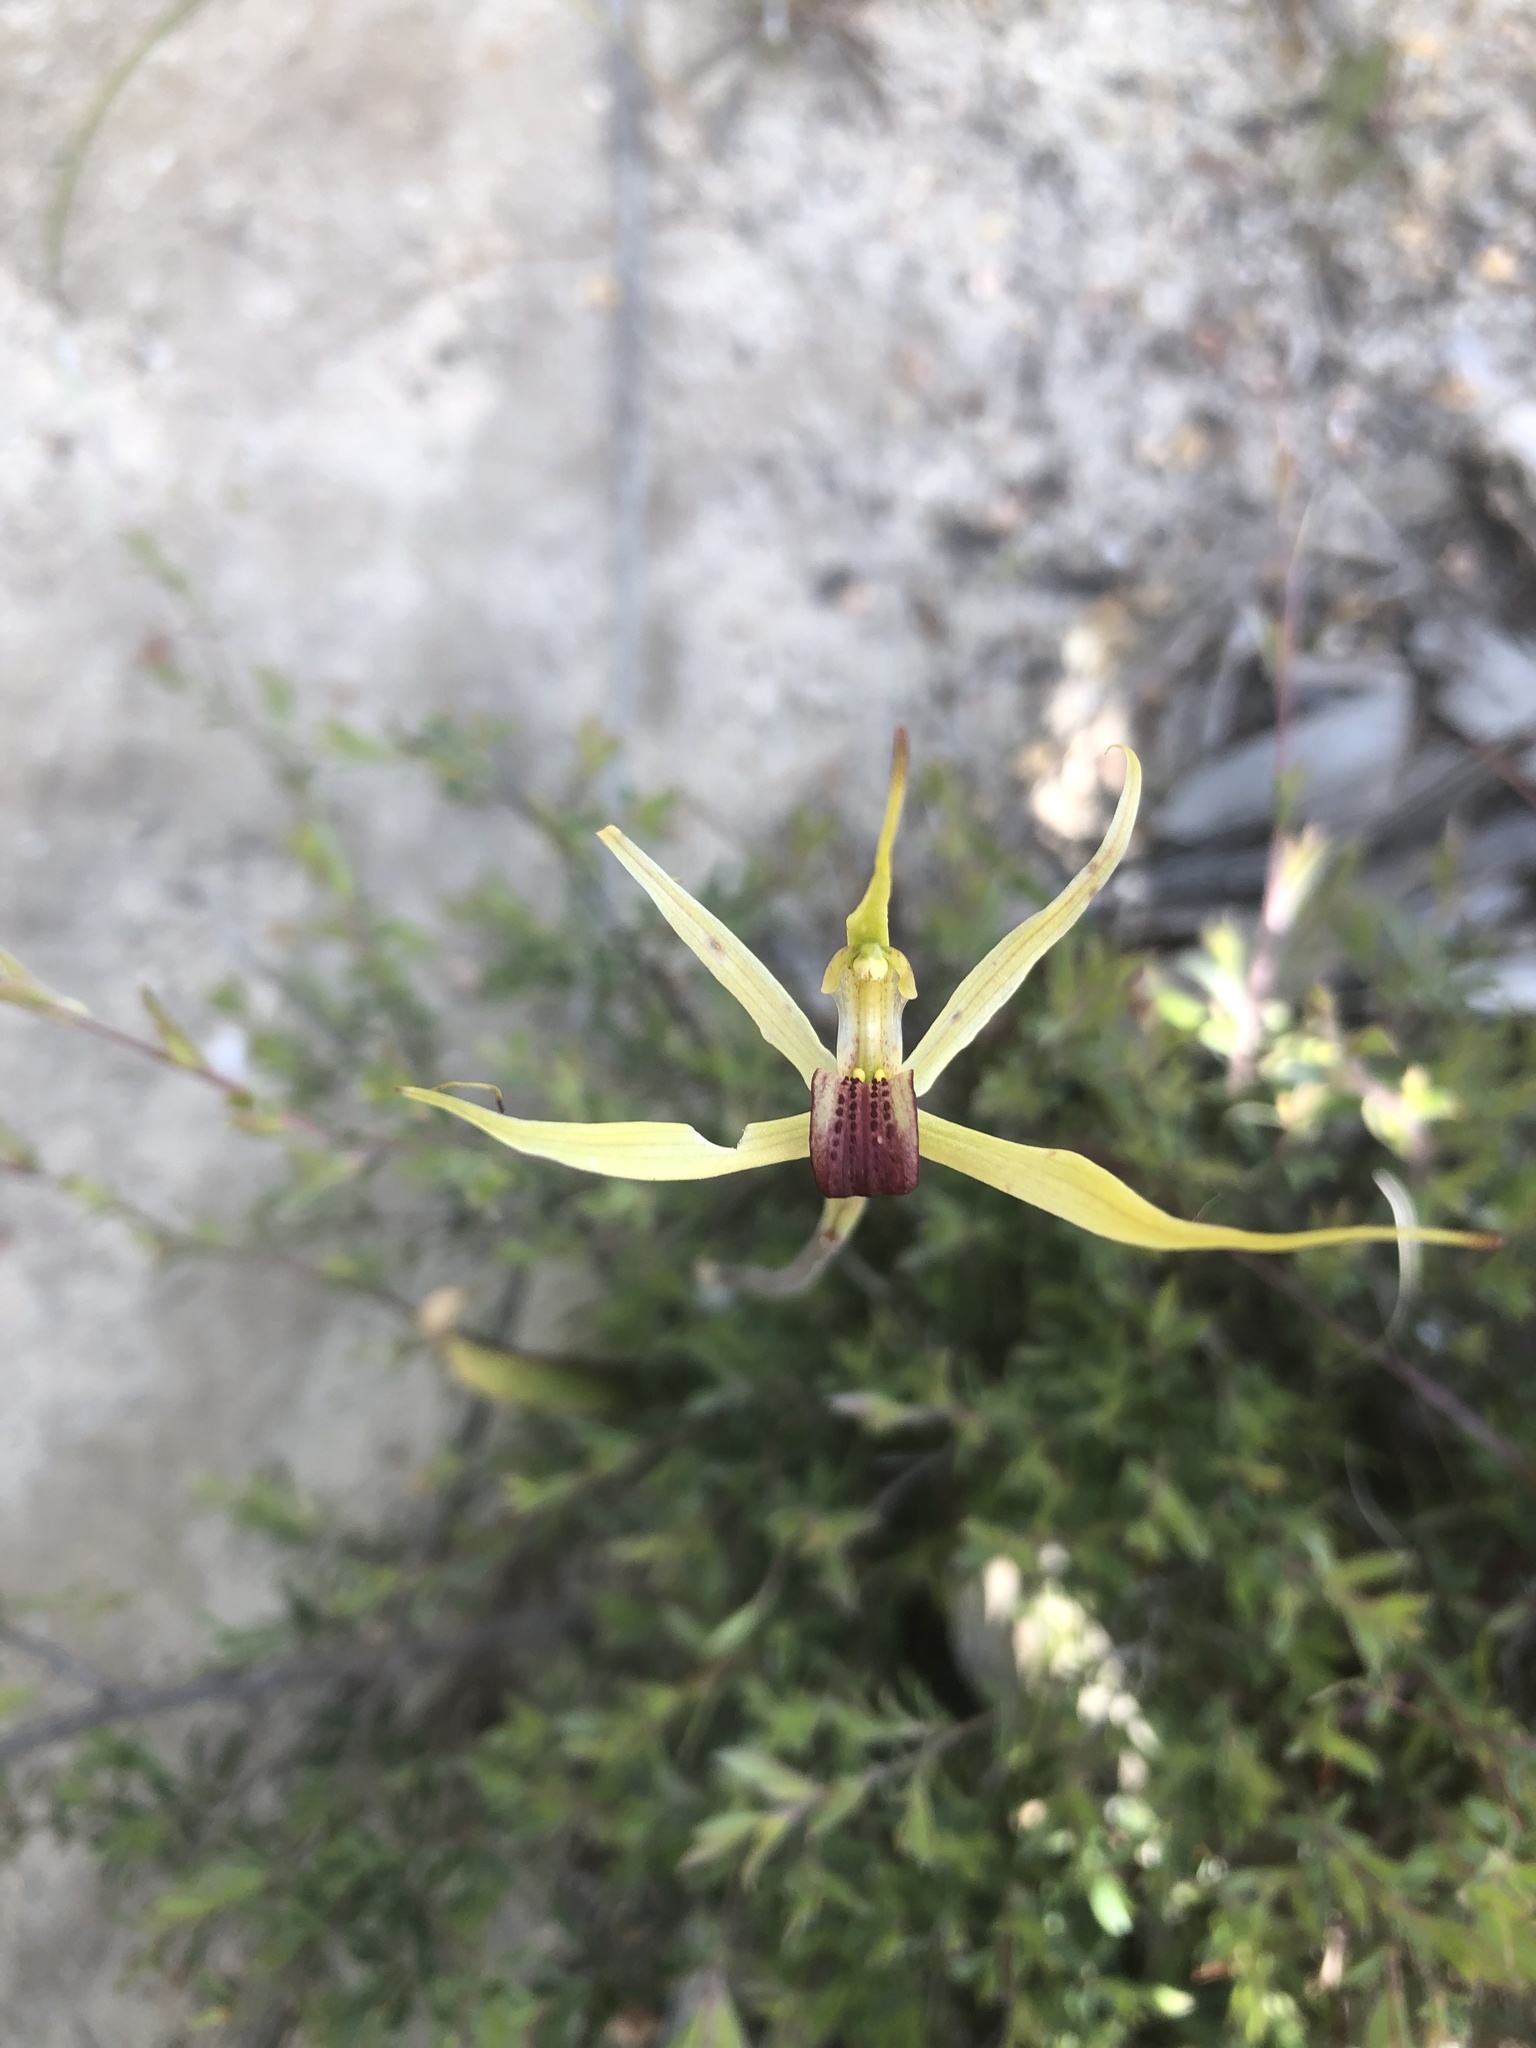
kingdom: Plantae
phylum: Tracheophyta
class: Liliopsida
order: Asparagales
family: Orchidaceae
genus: Caladenia
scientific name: Caladenia leptochila
